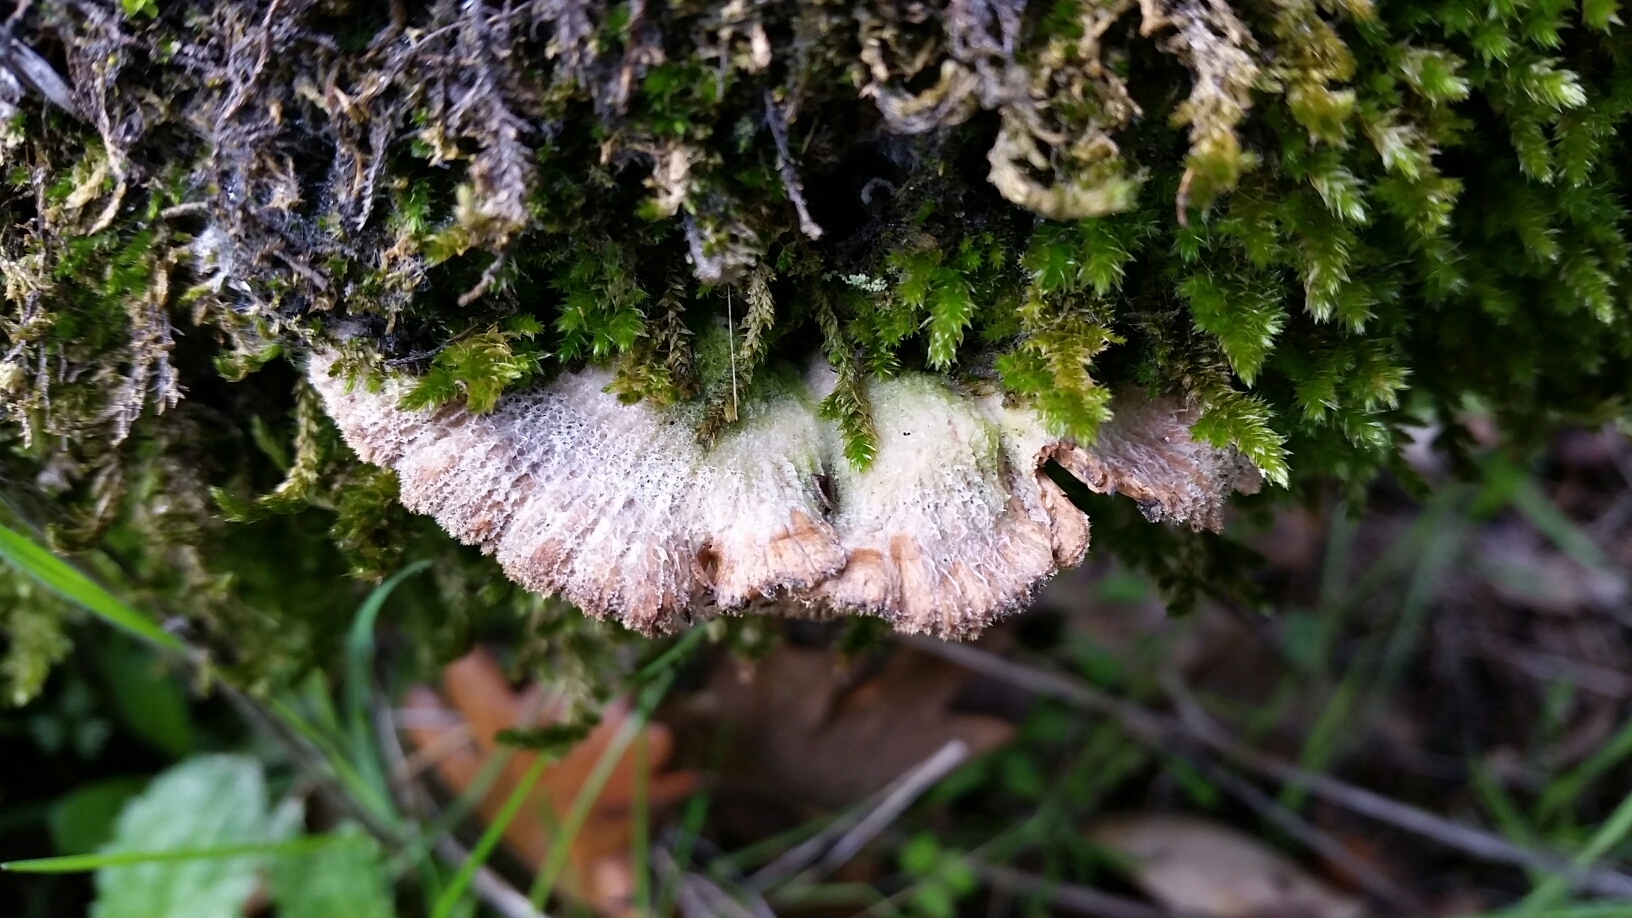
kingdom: Fungi
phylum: Basidiomycota
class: Agaricomycetes
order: Agaricales
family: Schizophyllaceae
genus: Schizophyllum
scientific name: Schizophyllum commune
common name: Common porecrust
